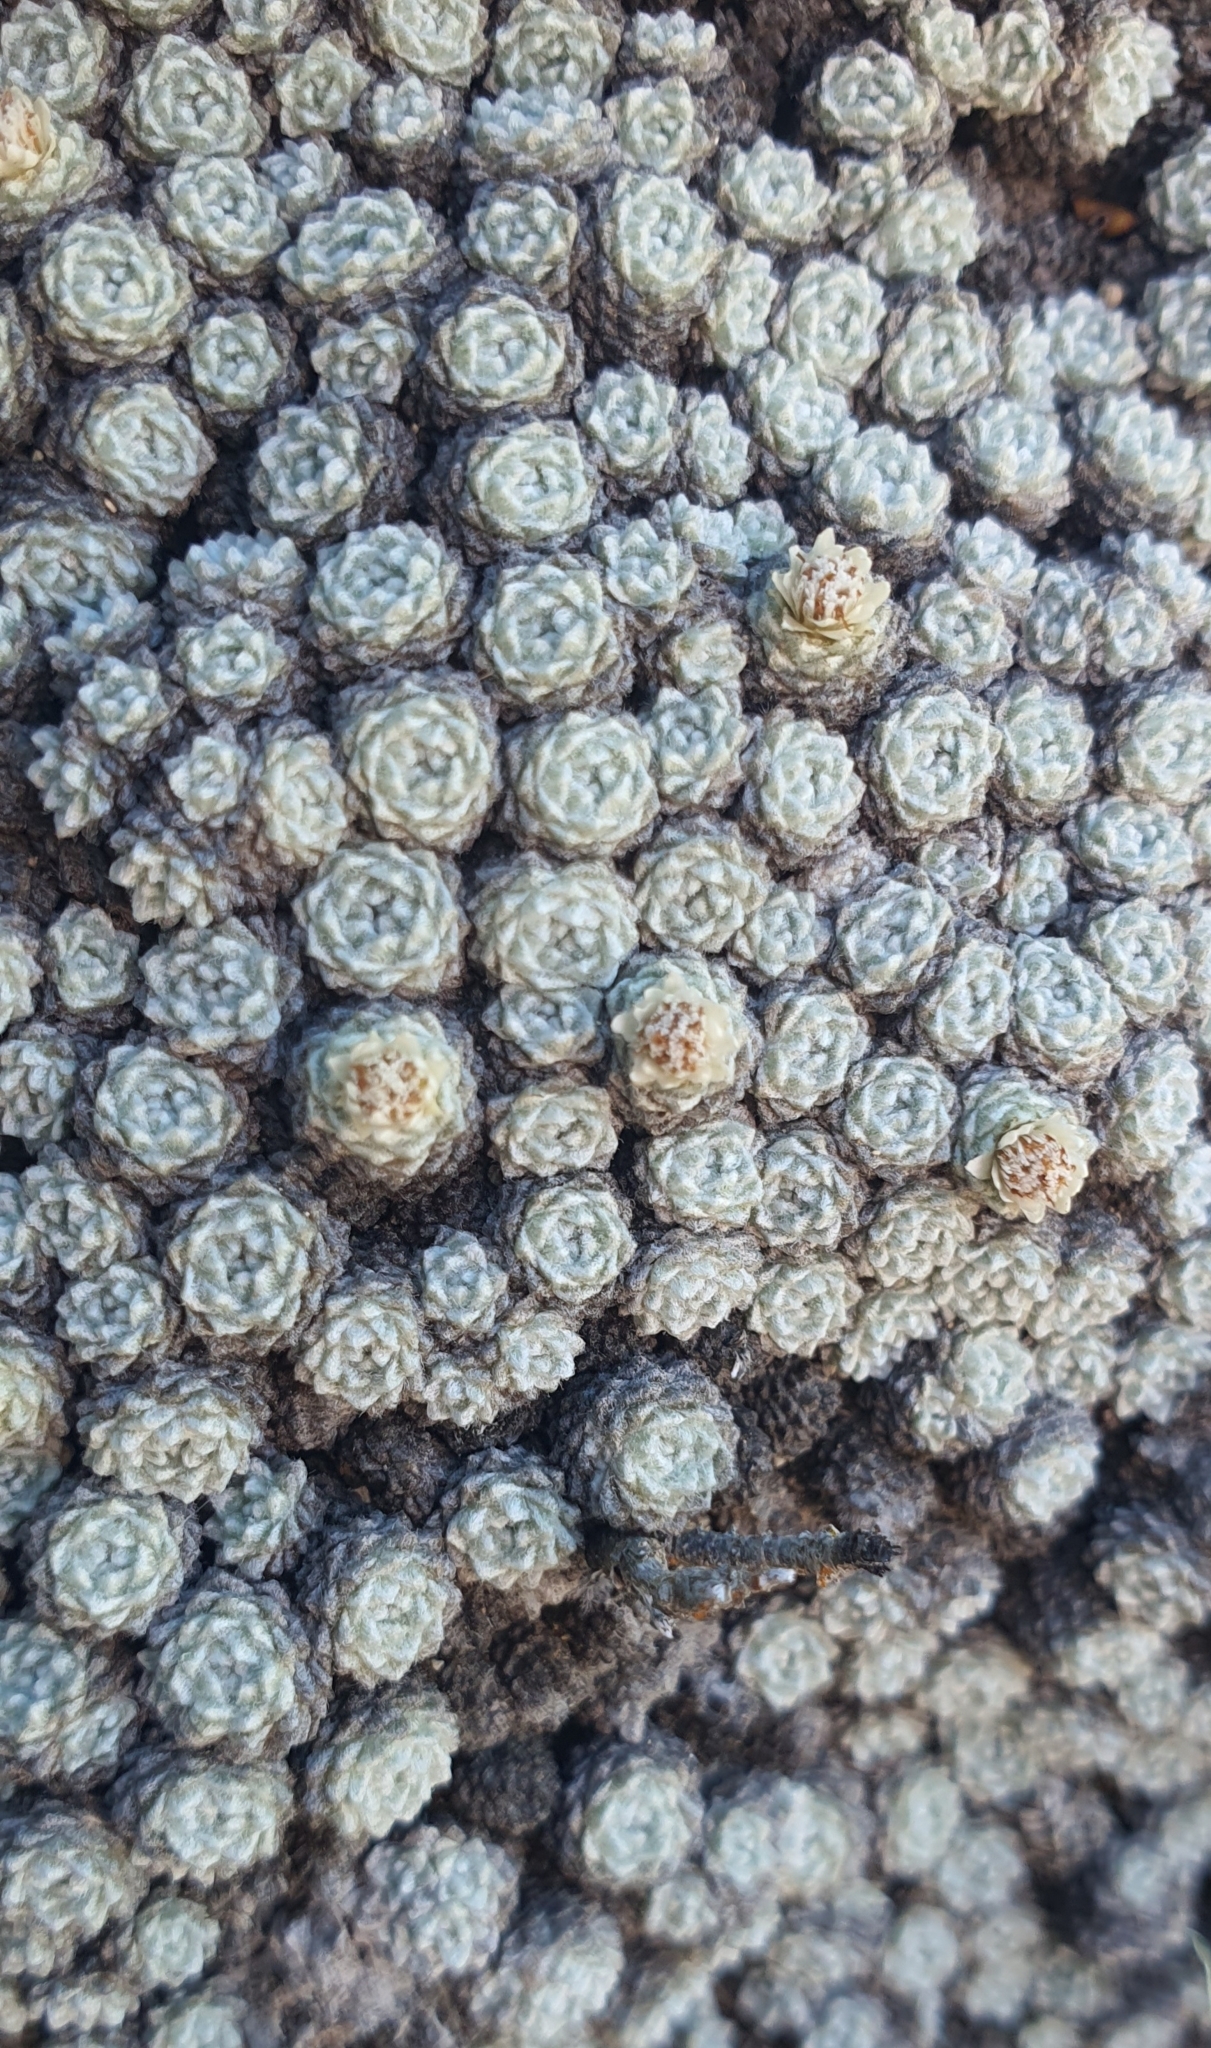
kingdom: Plantae
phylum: Tracheophyta
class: Magnoliopsida
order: Asterales
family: Asteraceae
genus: Raoulia
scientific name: Raoulia bryoides
